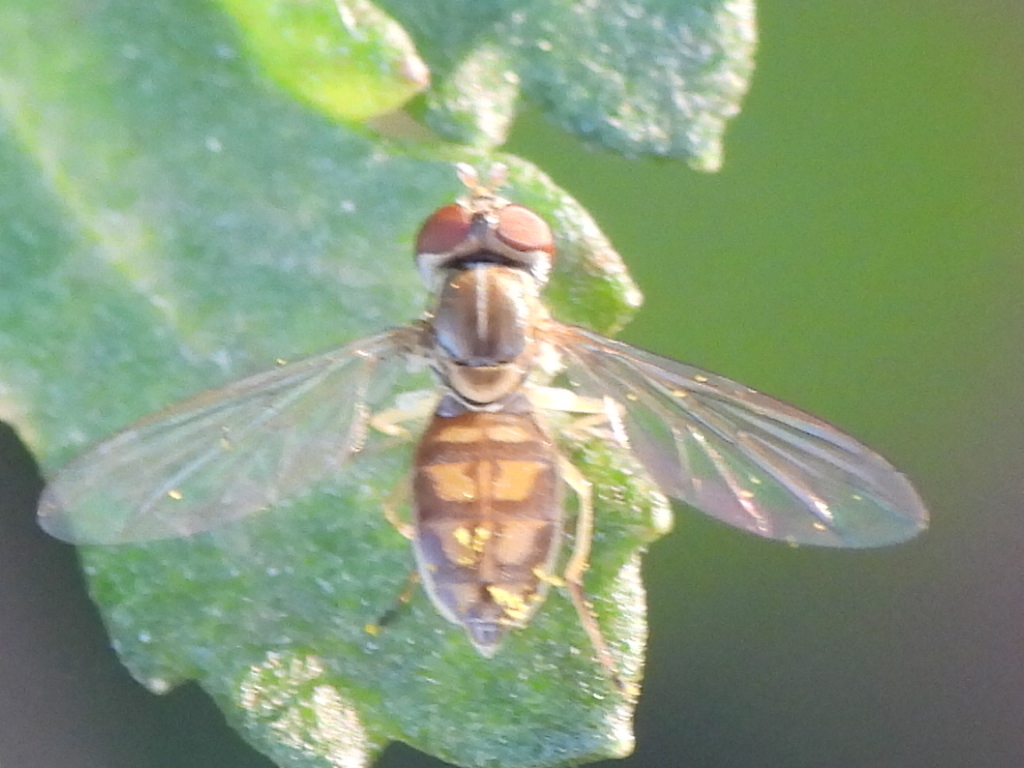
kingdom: Animalia
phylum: Arthropoda
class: Insecta
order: Diptera
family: Syrphidae
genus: Toxomerus
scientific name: Toxomerus marginatus
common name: Syrphid fly
